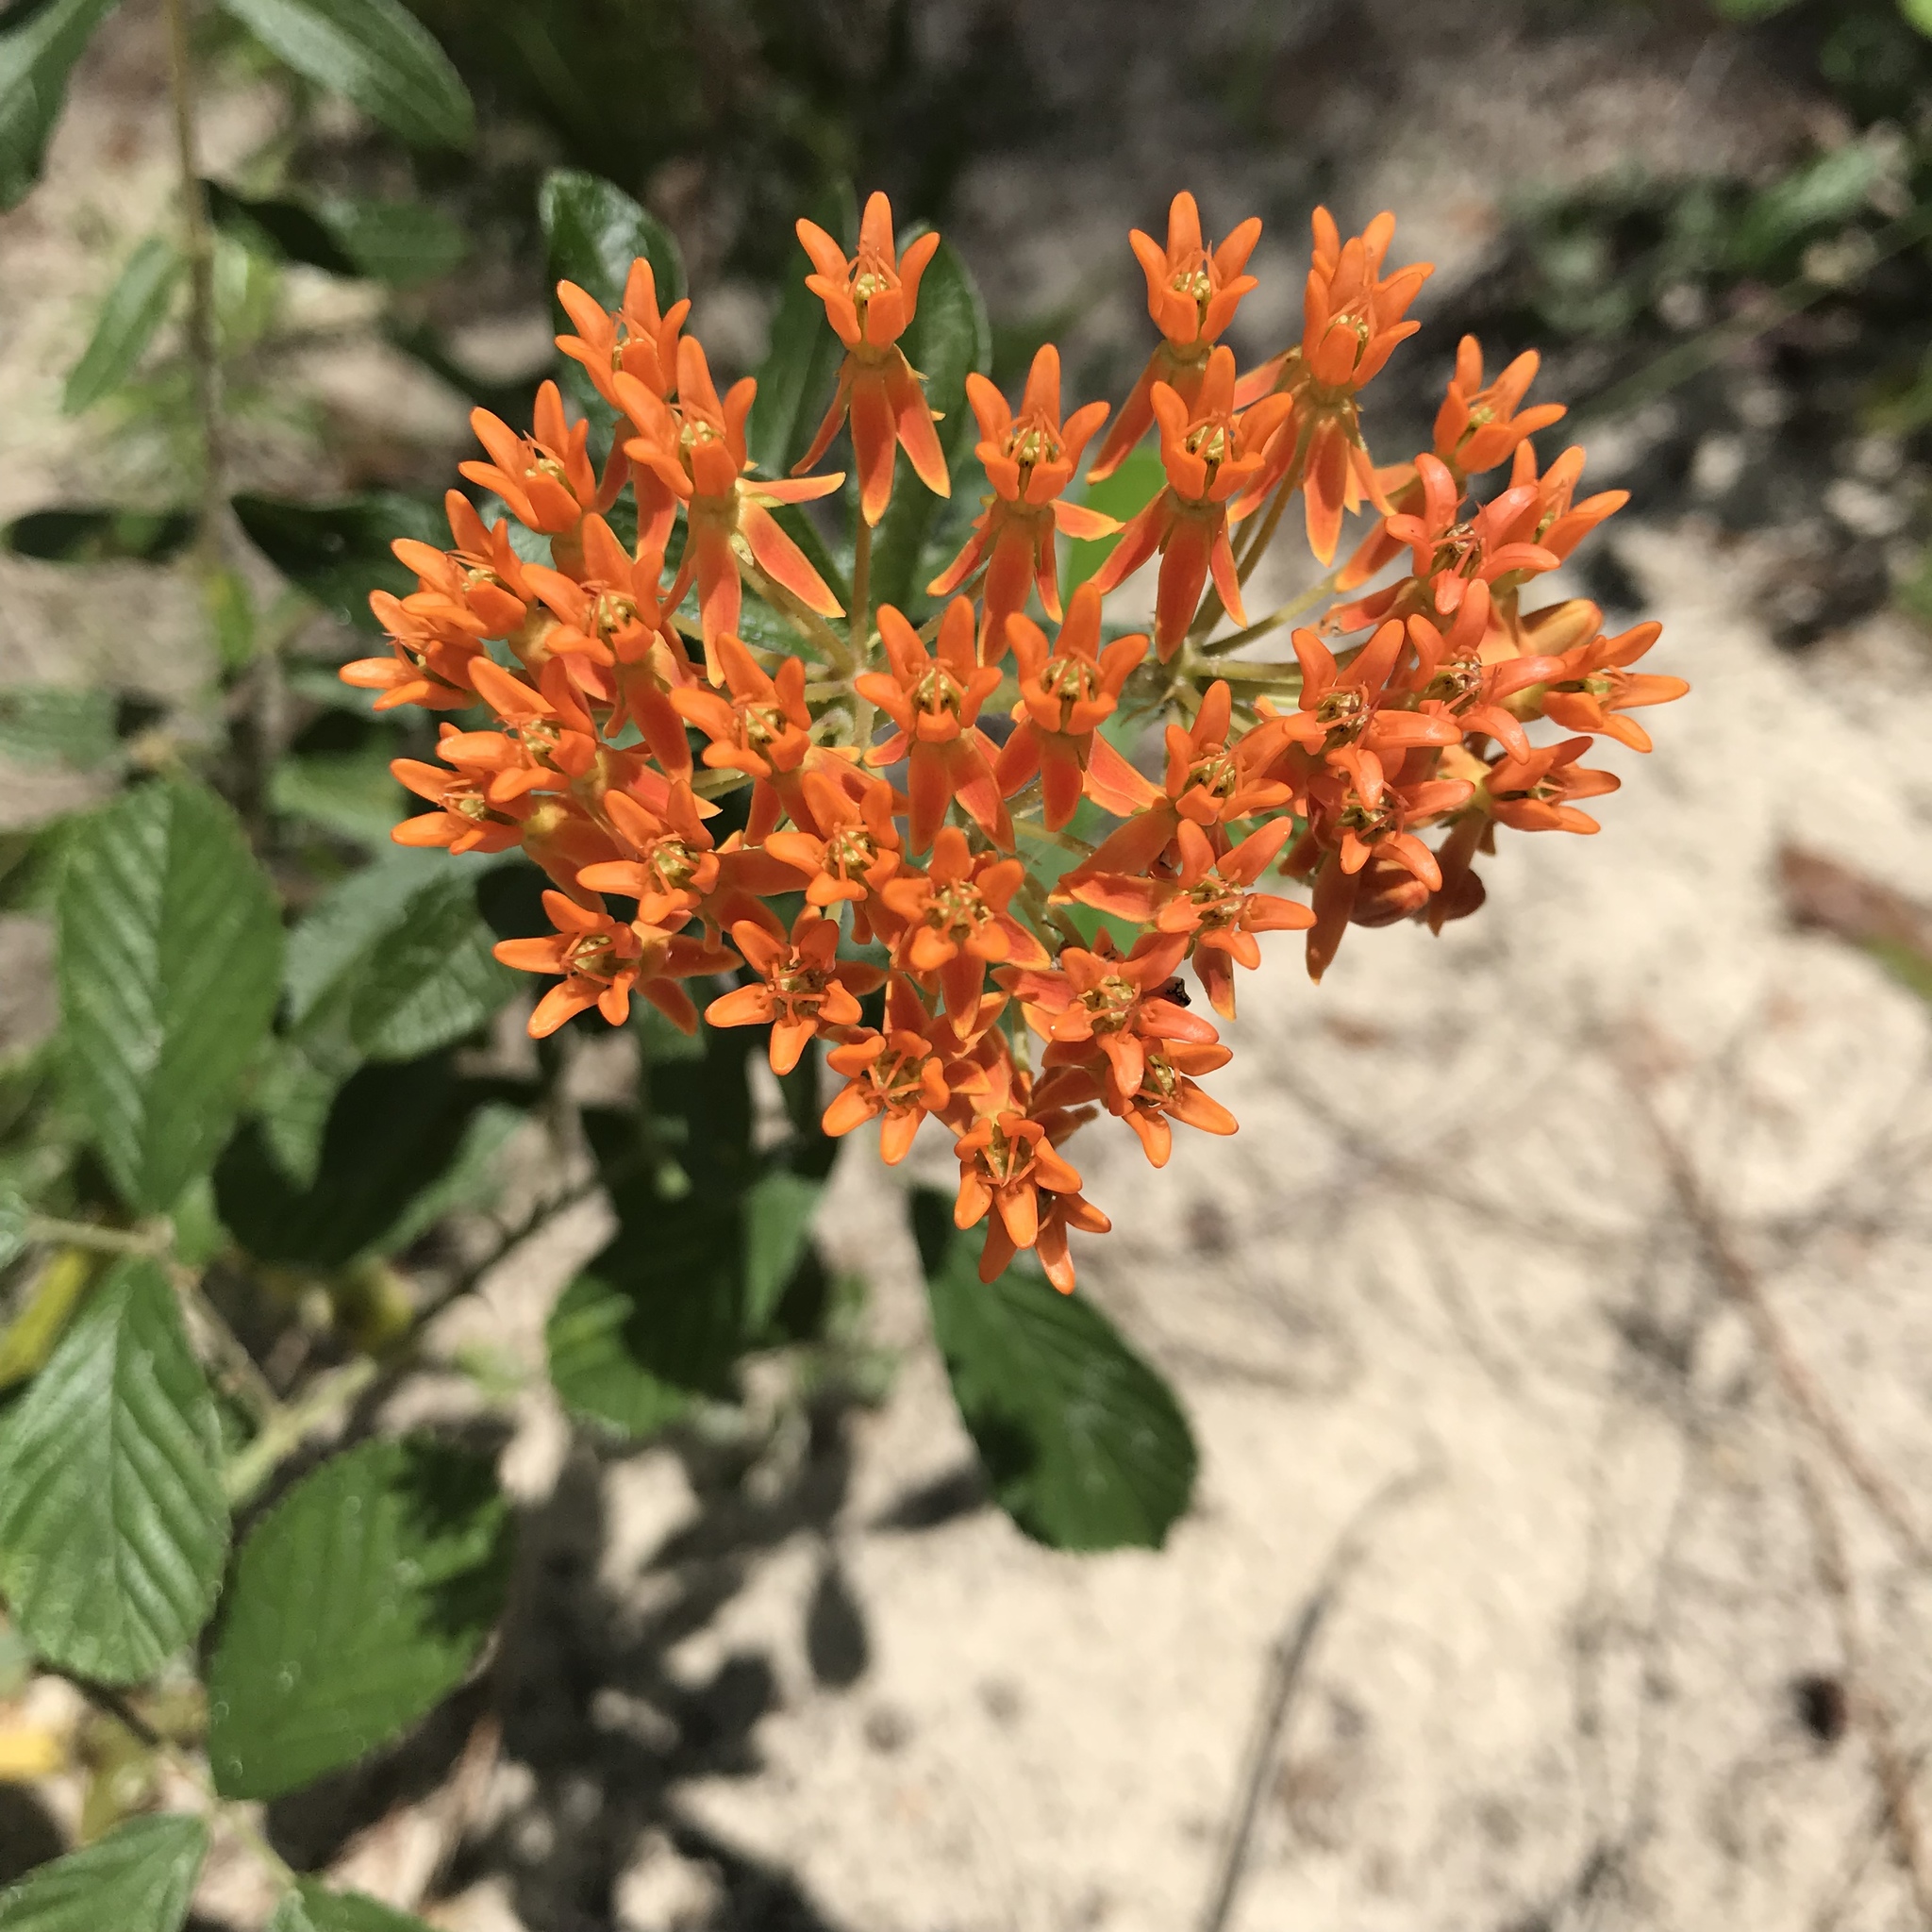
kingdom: Plantae
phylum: Tracheophyta
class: Magnoliopsida
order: Gentianales
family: Apocynaceae
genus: Asclepias
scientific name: Asclepias tuberosa
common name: Butterfly milkweed
